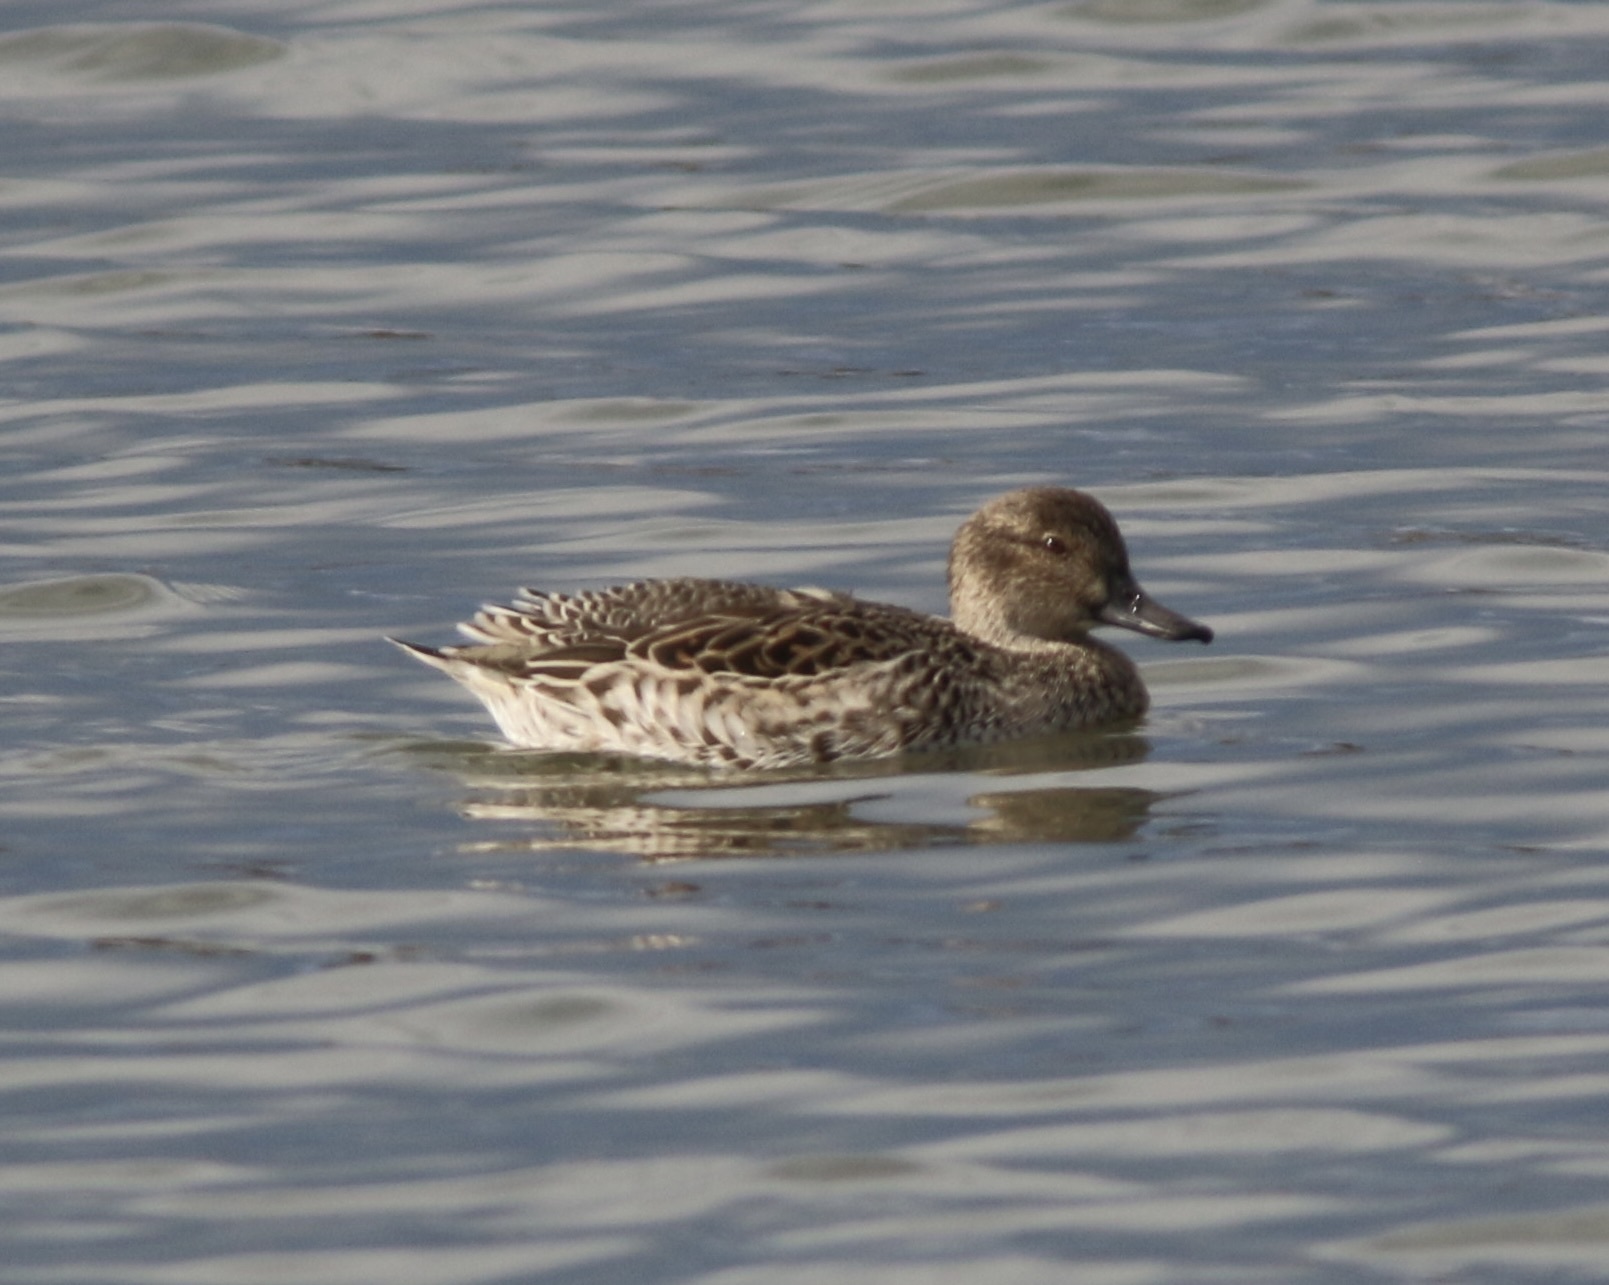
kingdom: Animalia
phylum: Chordata
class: Aves
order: Anseriformes
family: Anatidae
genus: Anas
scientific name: Anas crecca
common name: Eurasian teal
